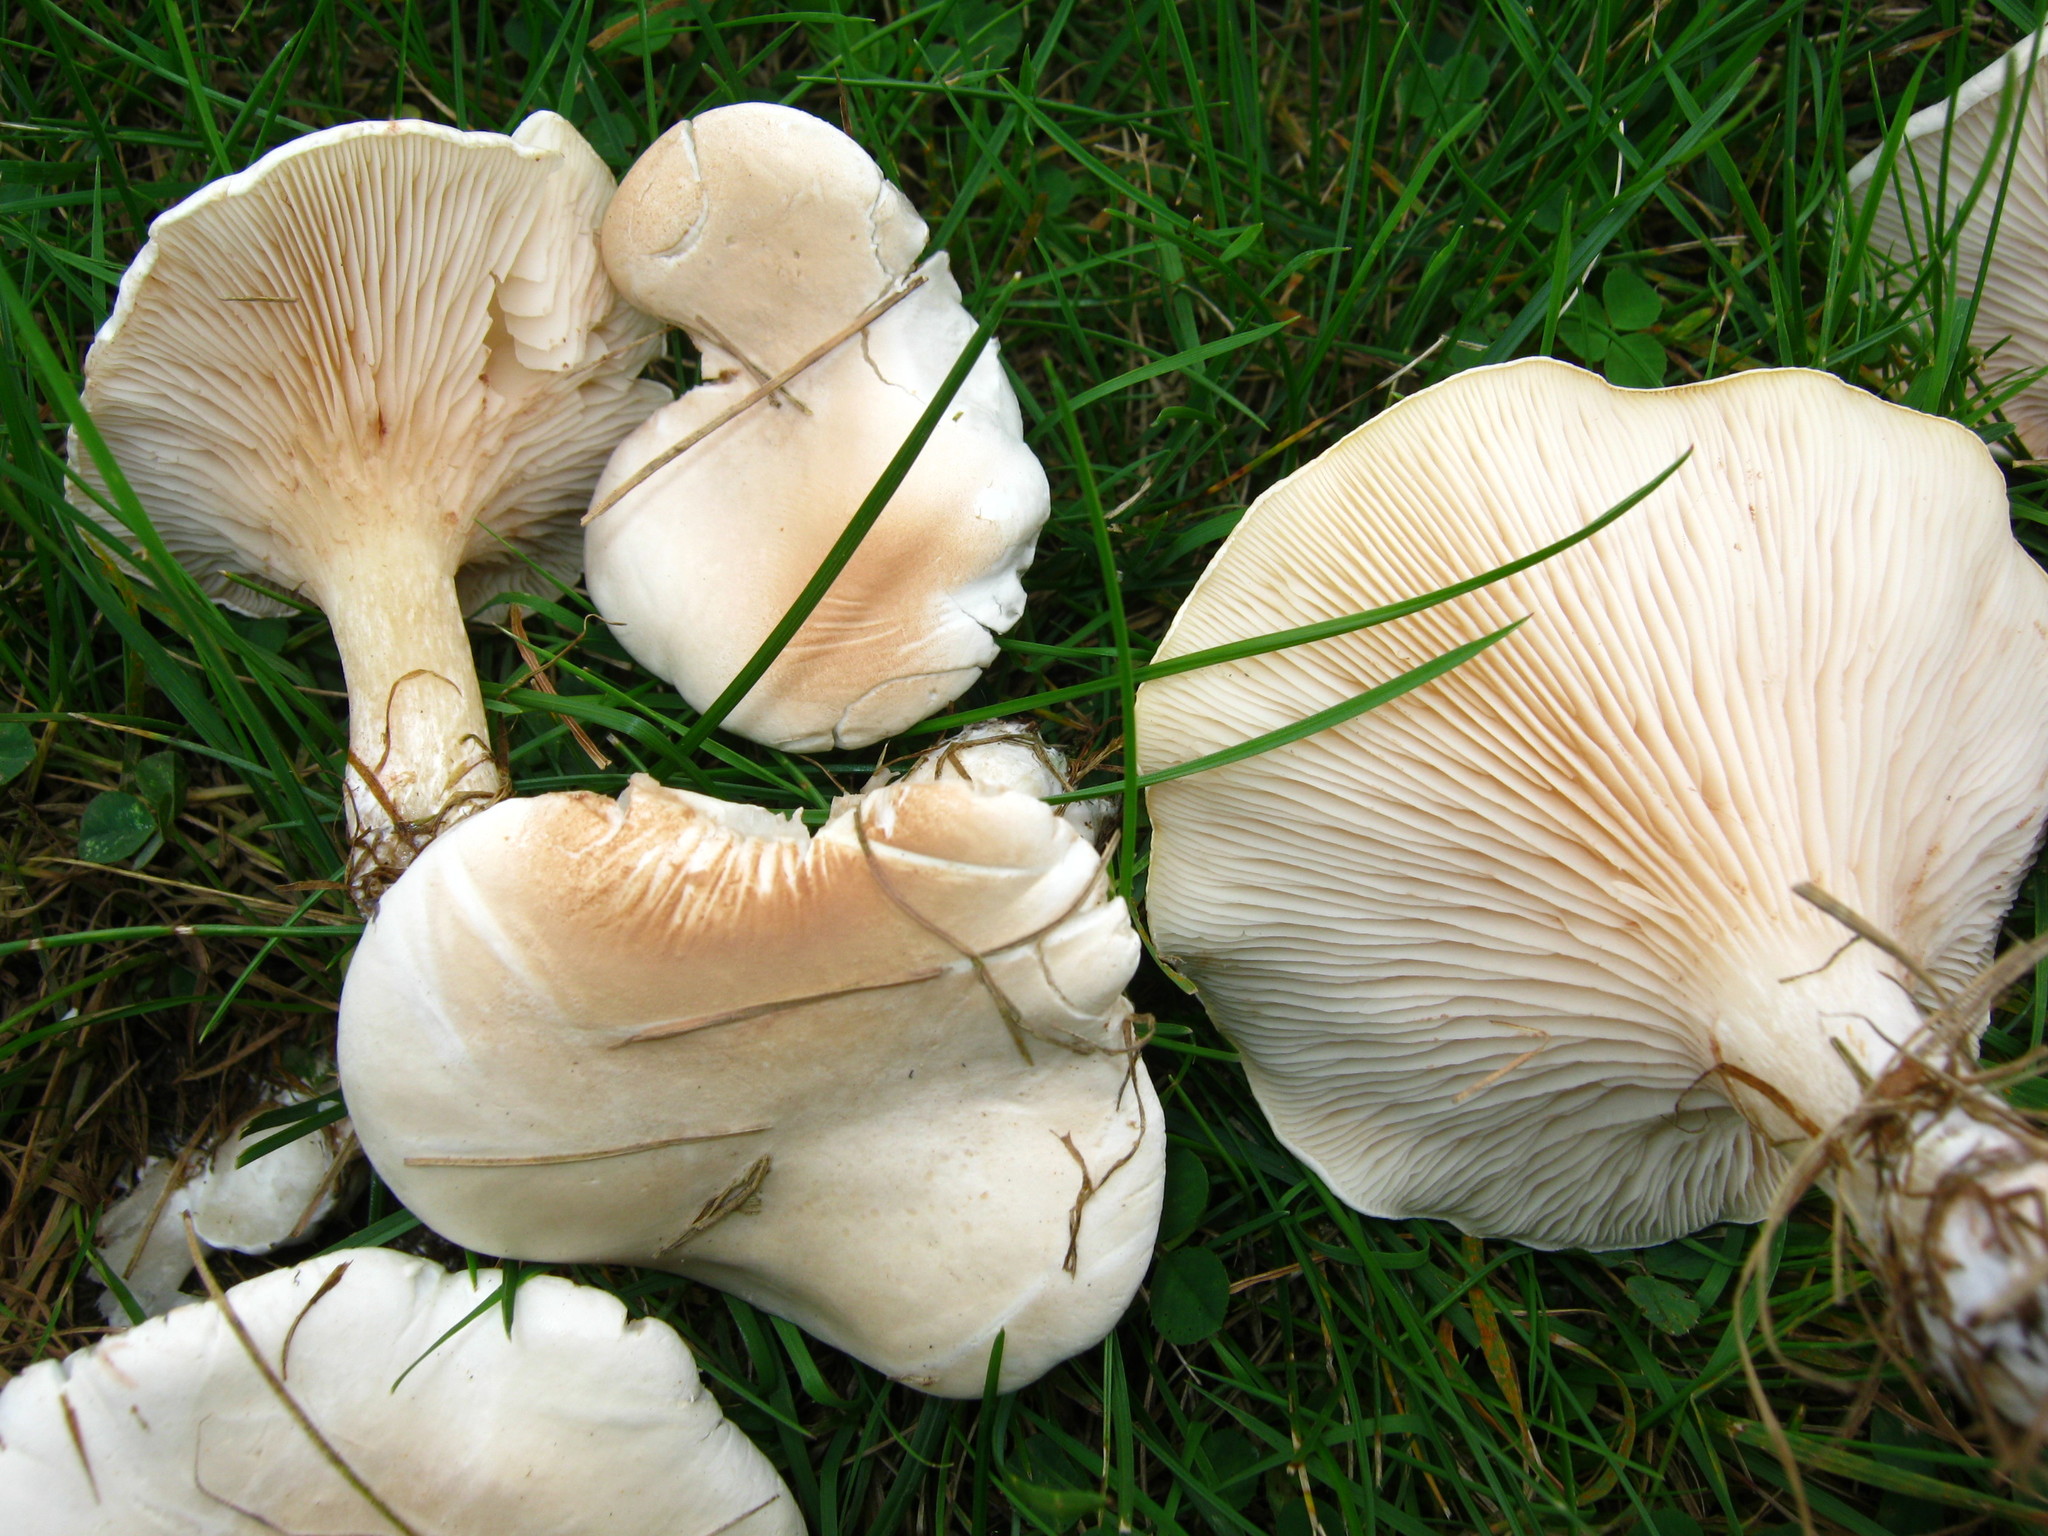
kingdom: Fungi
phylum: Basidiomycota
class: Agaricomycetes
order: Agaricales
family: Entolomataceae
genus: Clitopilus
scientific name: Clitopilus prunulus
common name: The miller
